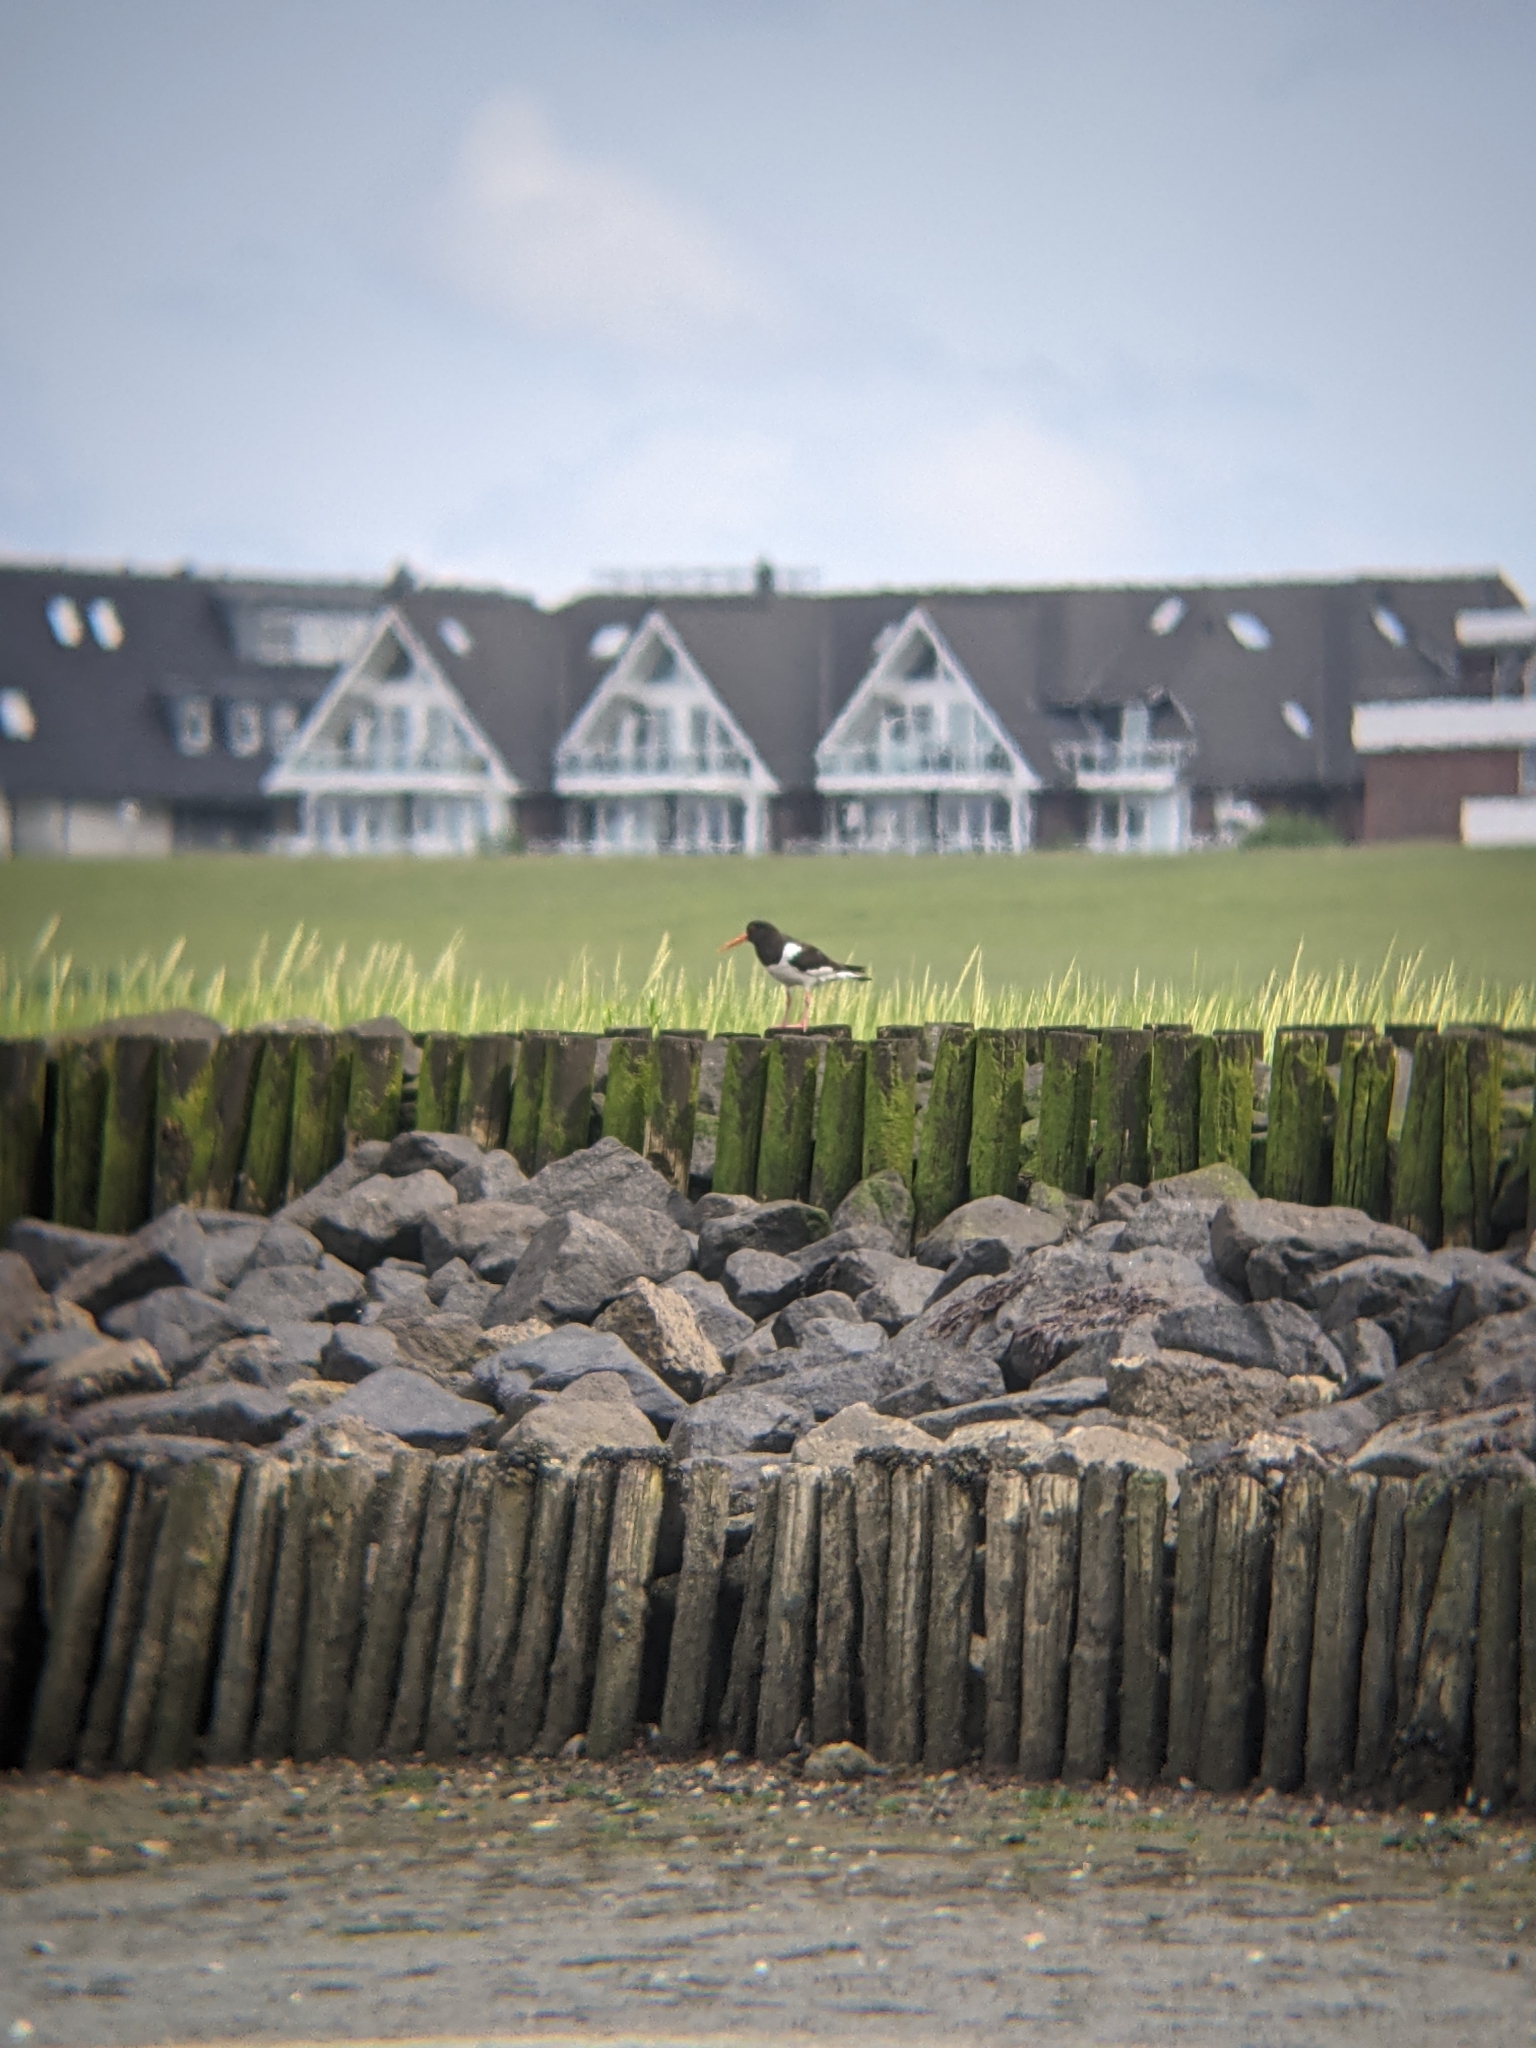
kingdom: Animalia
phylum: Chordata
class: Aves
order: Charadriiformes
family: Haematopodidae
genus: Haematopus
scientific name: Haematopus ostralegus
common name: Eurasian oystercatcher
